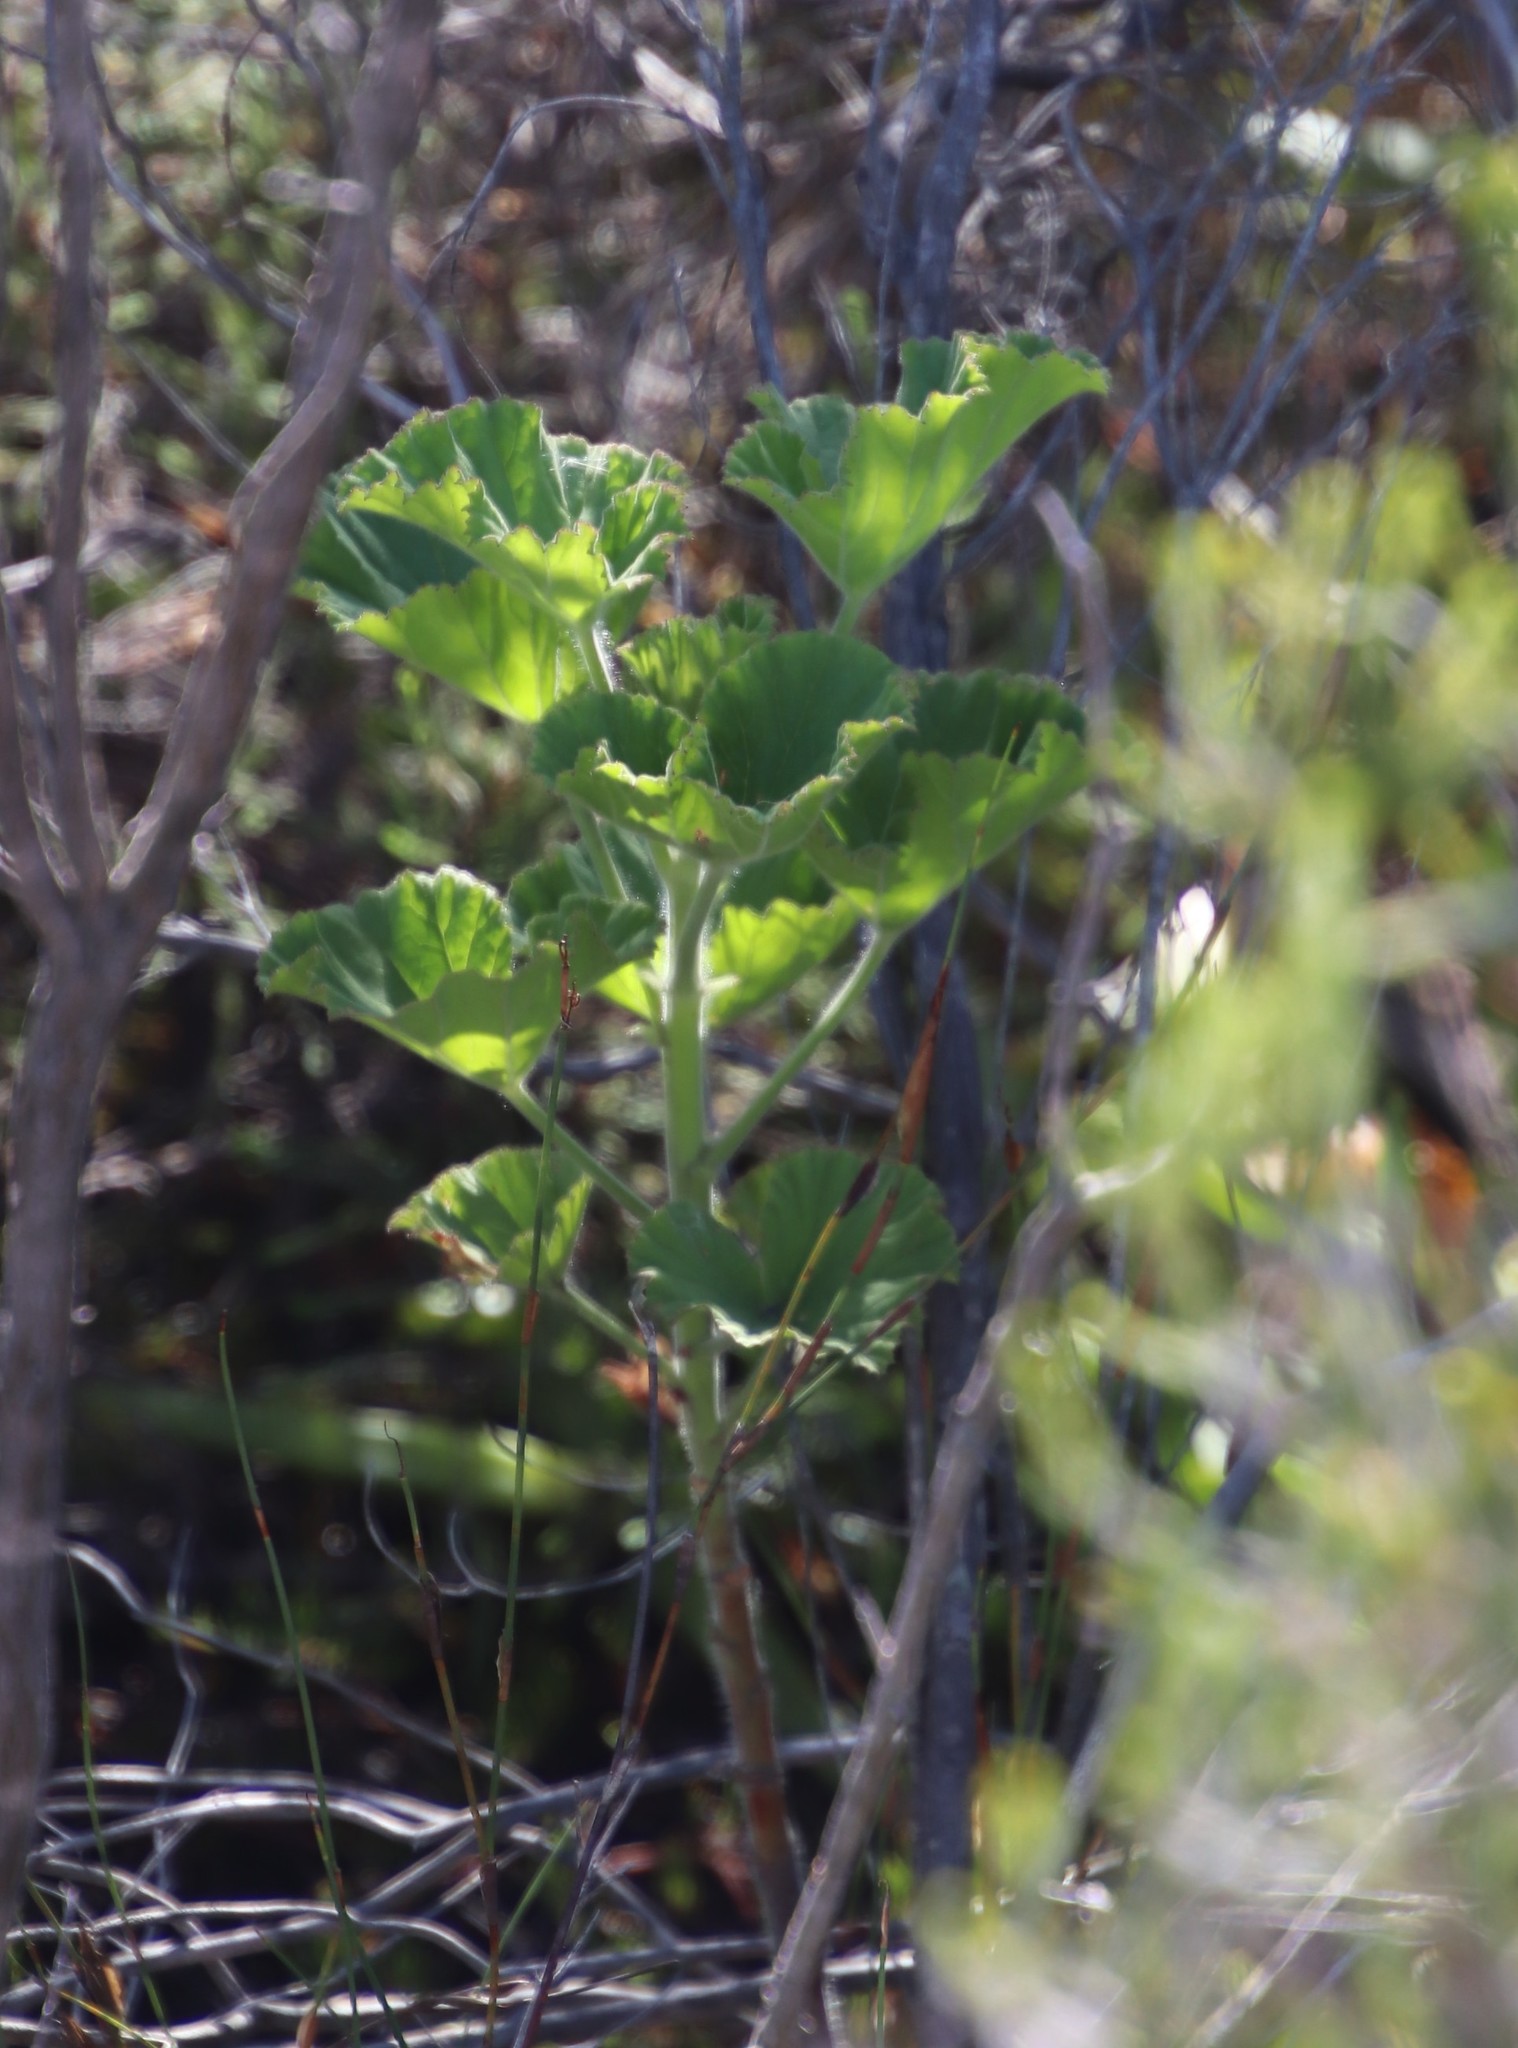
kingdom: Plantae
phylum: Tracheophyta
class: Magnoliopsida
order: Geraniales
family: Geraniaceae
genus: Pelargonium
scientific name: Pelargonium cucullatum
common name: Tree pelargonium
